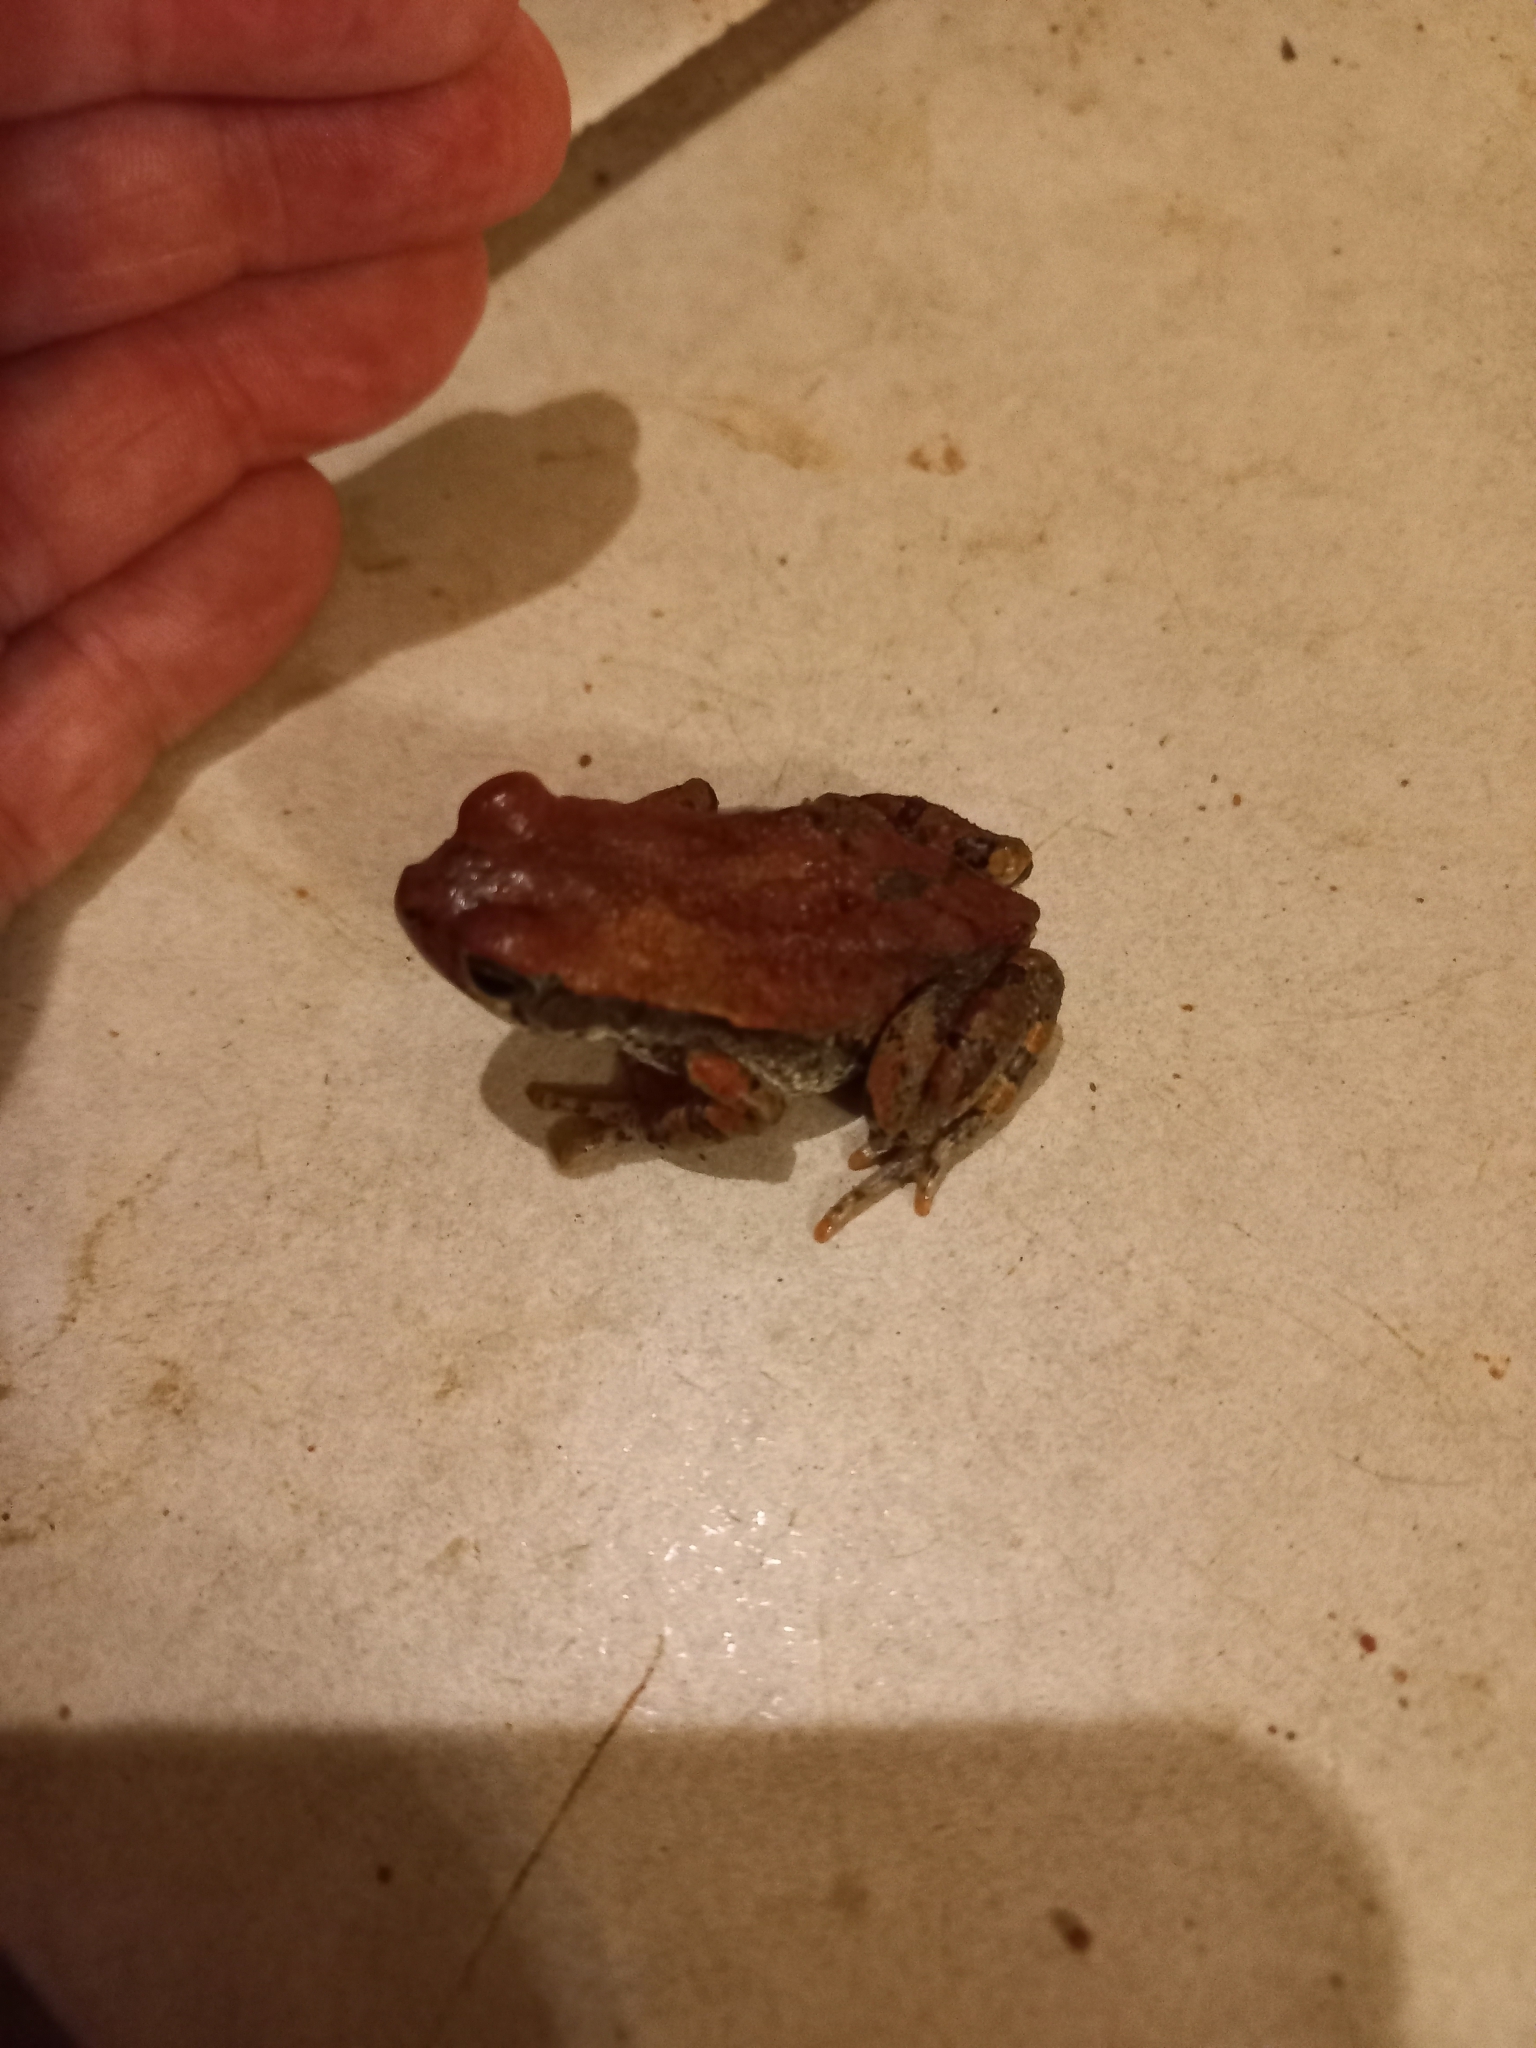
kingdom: Animalia
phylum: Chordata
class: Amphibia
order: Anura
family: Bufonidae
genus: Schismaderma
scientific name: Schismaderma carens
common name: African split-skin toad
